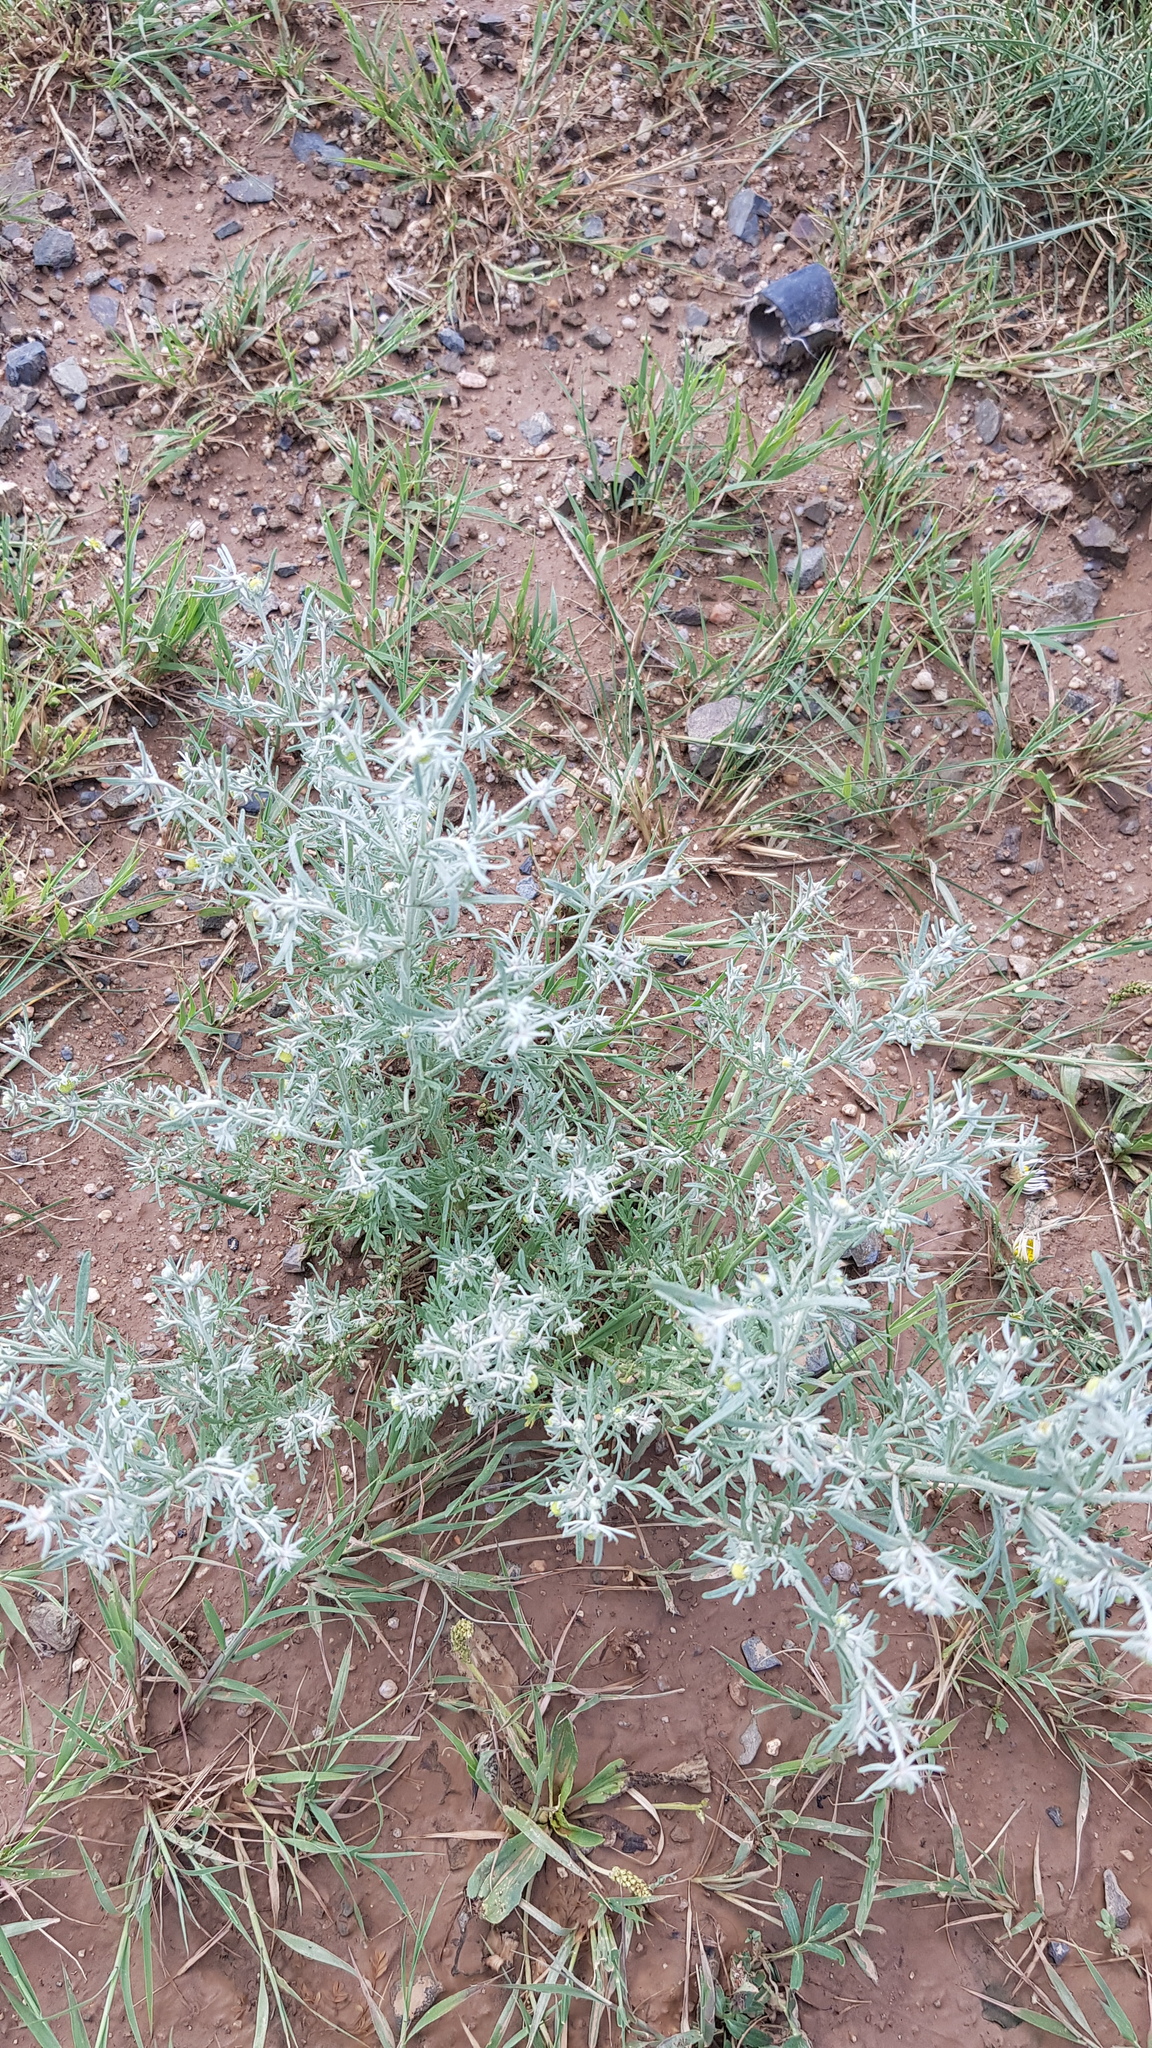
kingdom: Plantae
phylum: Tracheophyta
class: Magnoliopsida
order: Asterales
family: Asteraceae
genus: Artemisia
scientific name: Artemisia frigida
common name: Prairie sagewort
